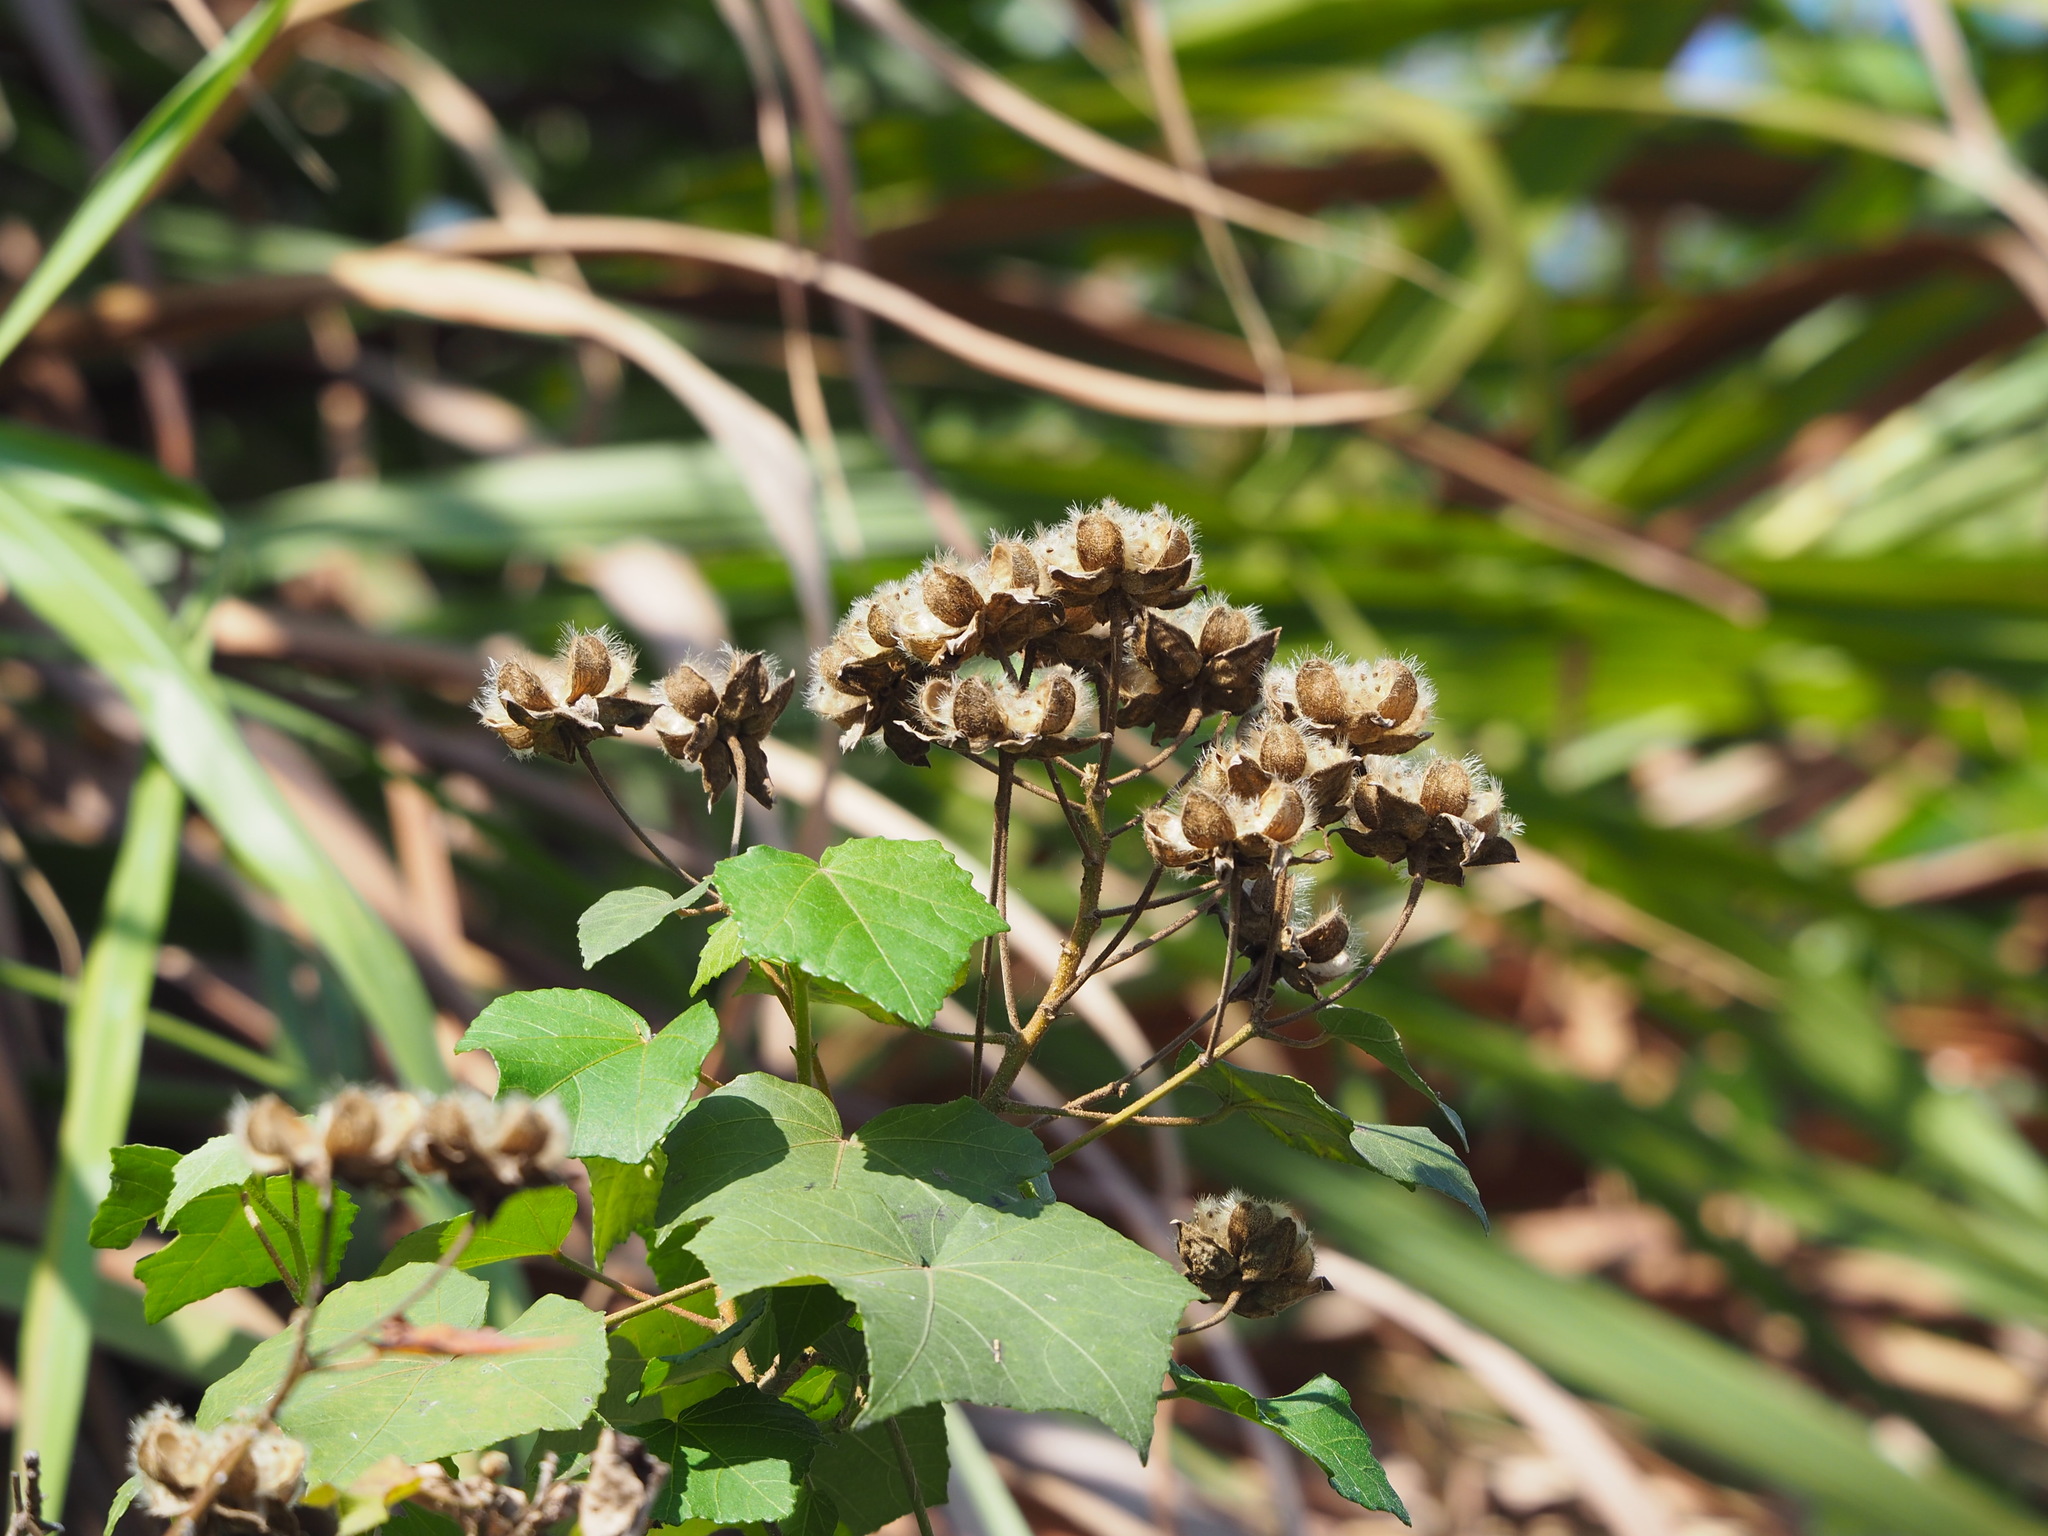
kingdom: Plantae
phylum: Tracheophyta
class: Magnoliopsida
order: Malvales
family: Malvaceae
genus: Hibiscus
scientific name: Hibiscus taiwanensis
